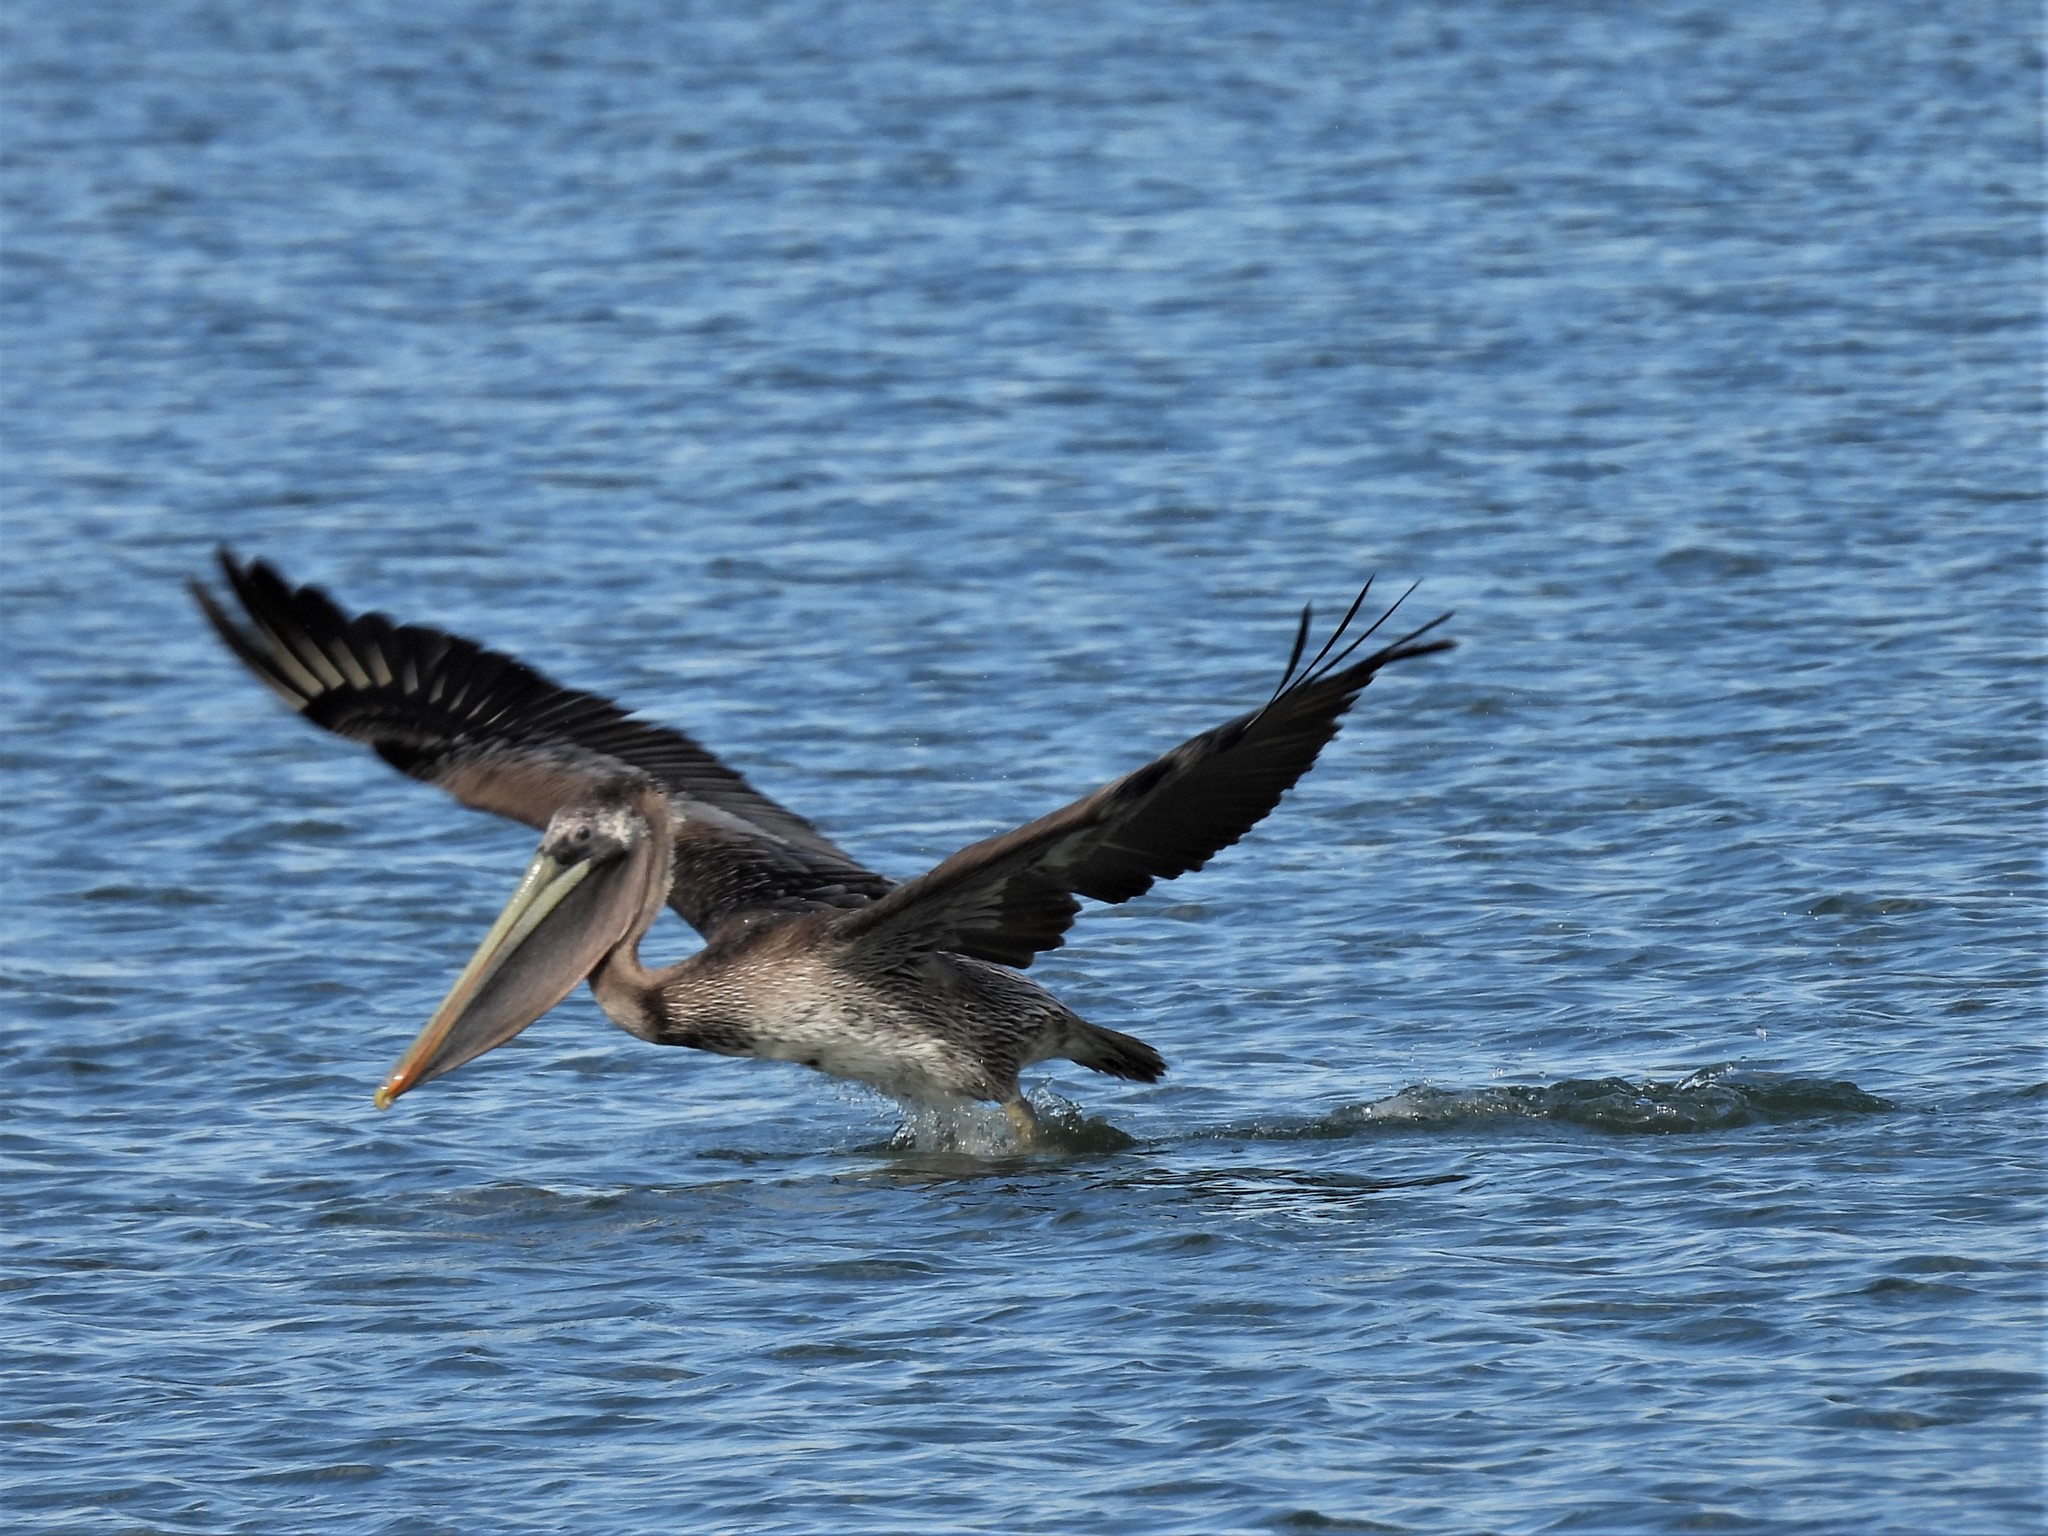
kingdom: Animalia
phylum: Chordata
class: Aves
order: Pelecaniformes
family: Pelecanidae
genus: Pelecanus
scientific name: Pelecanus occidentalis
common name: Brown pelican
